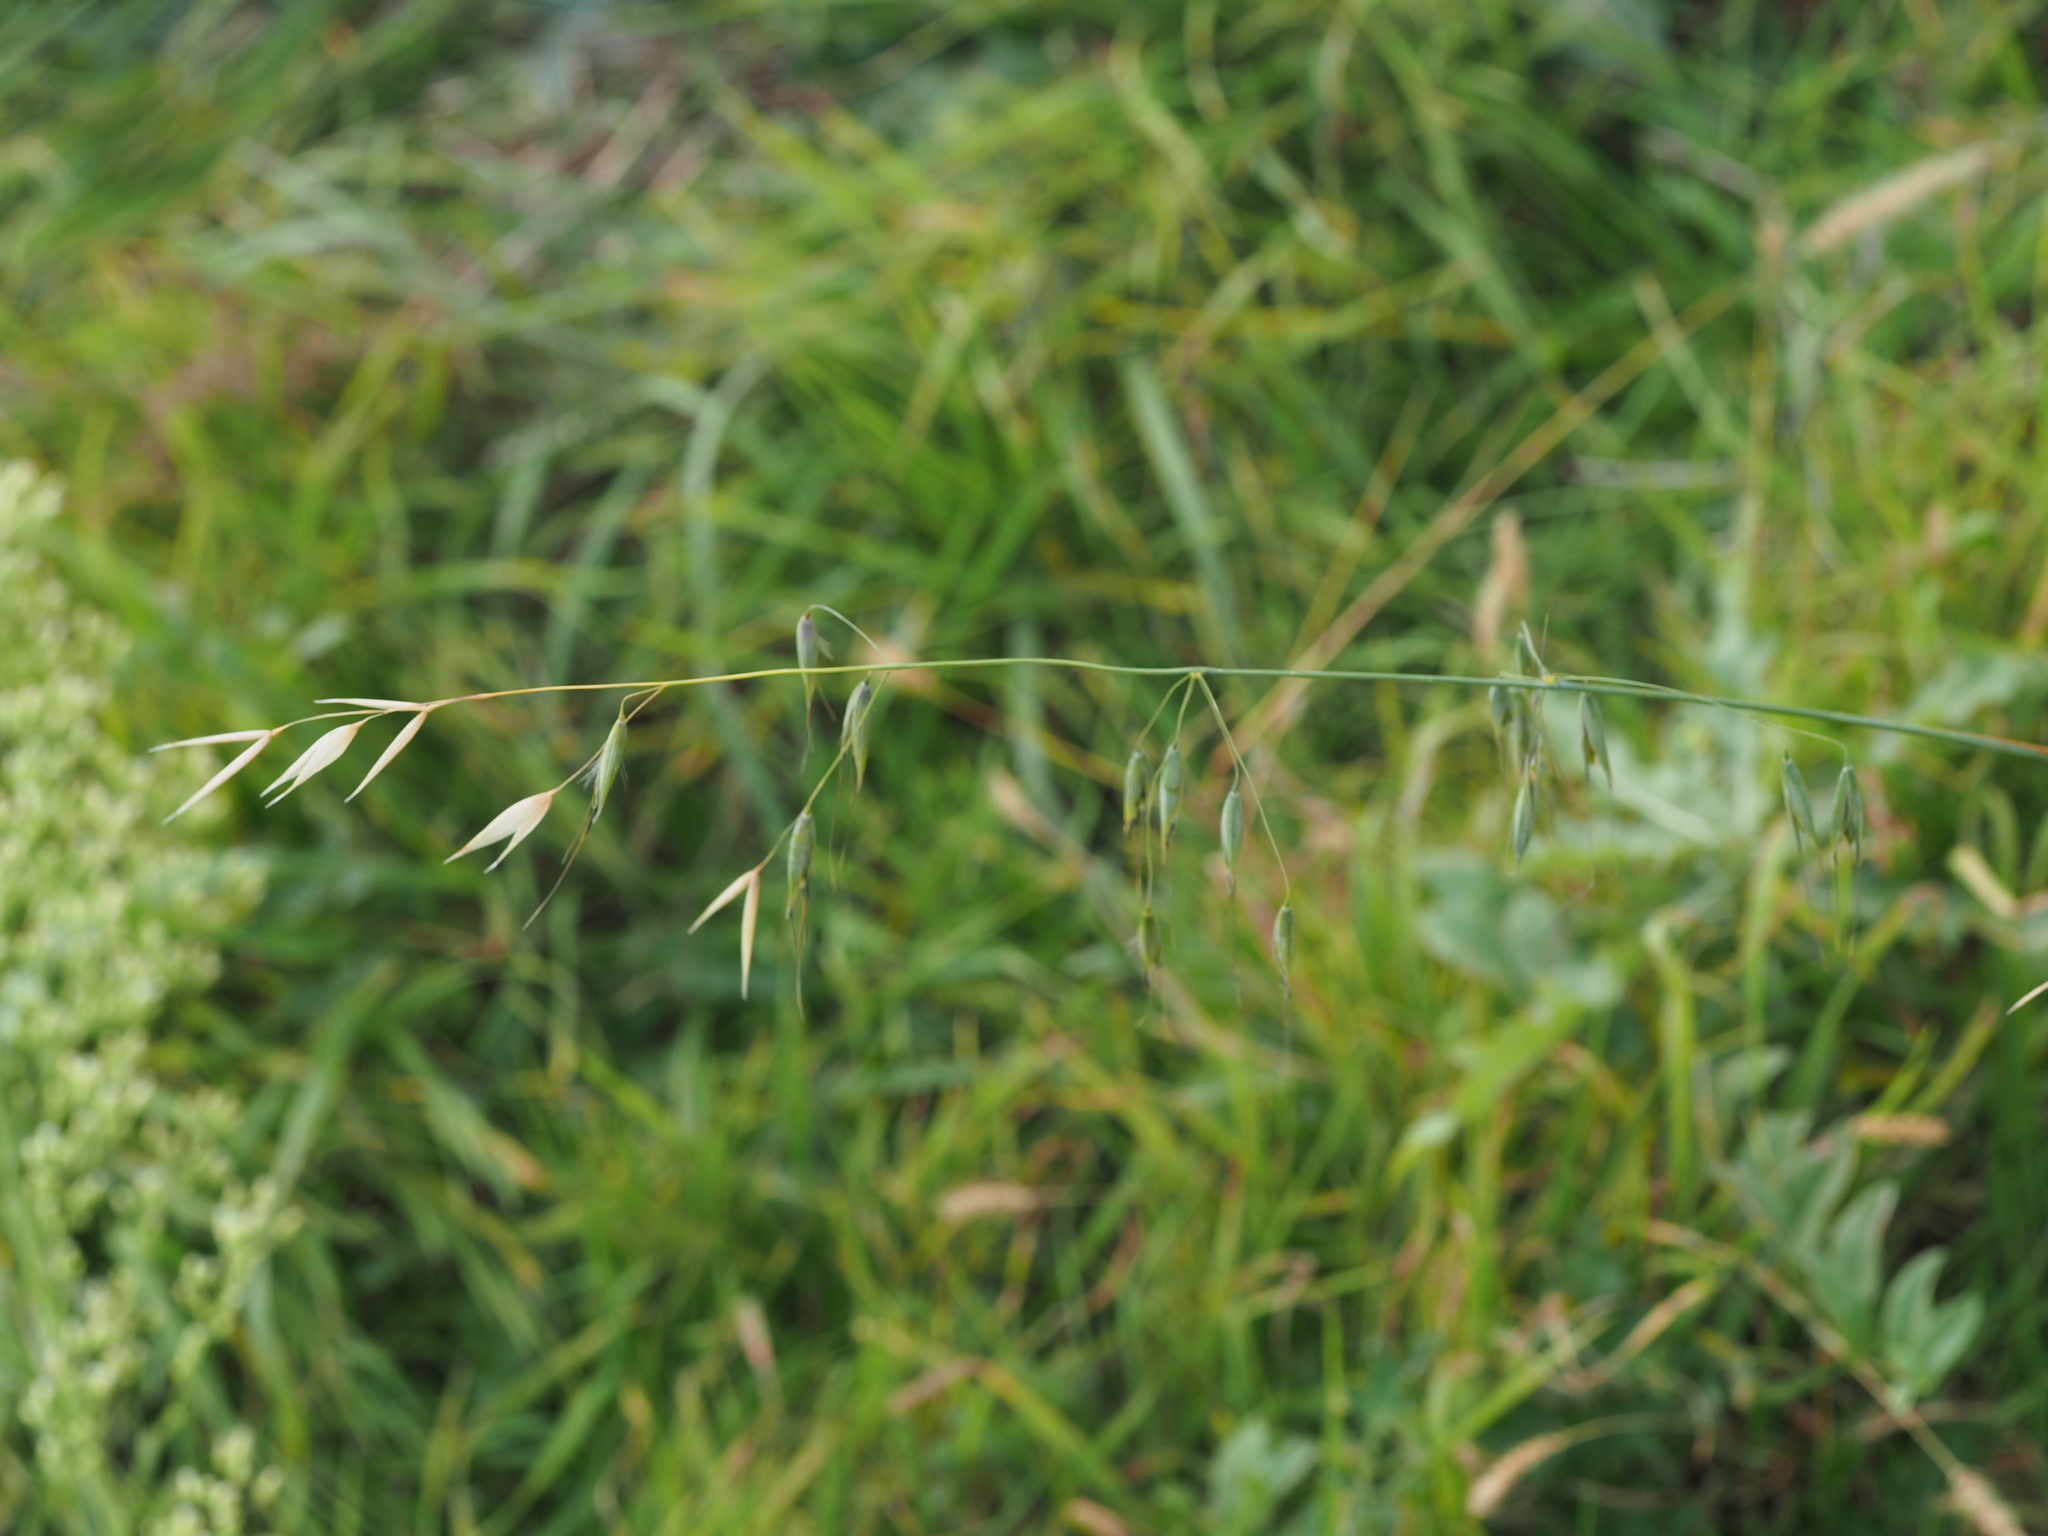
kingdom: Plantae
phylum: Tracheophyta
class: Liliopsida
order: Poales
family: Poaceae
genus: Avena
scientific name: Avena fatua
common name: Wild oat
